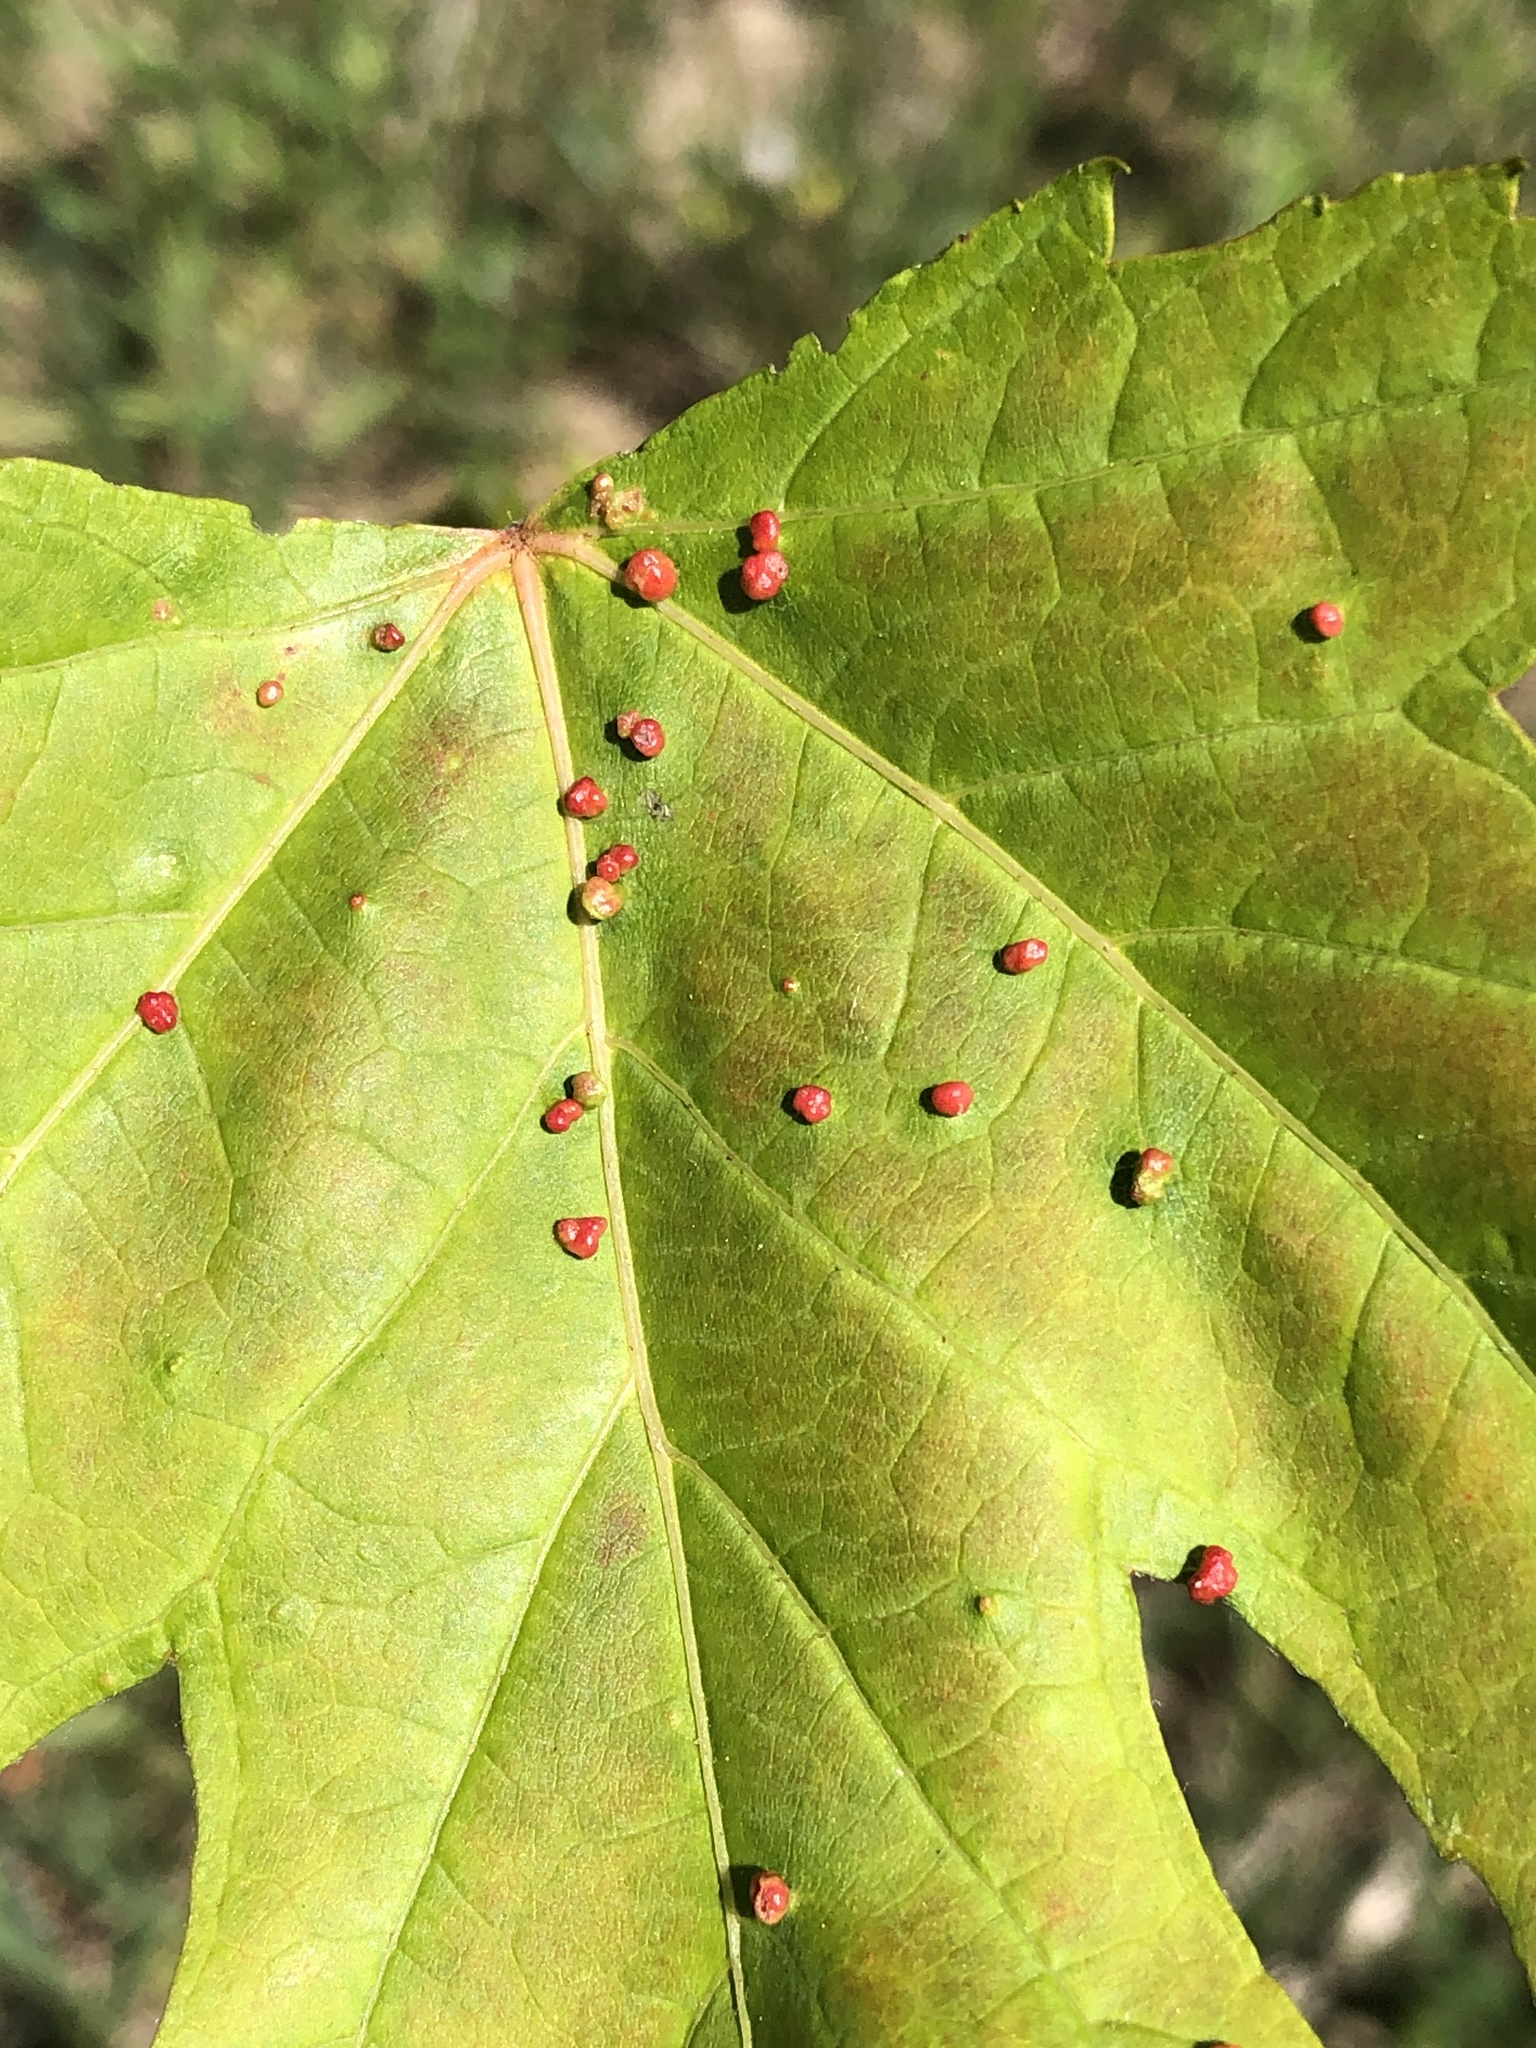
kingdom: Animalia
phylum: Arthropoda
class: Arachnida
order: Trombidiformes
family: Eriophyidae
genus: Vasates
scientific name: Vasates quadripedes
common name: Maple bladder gall mite
